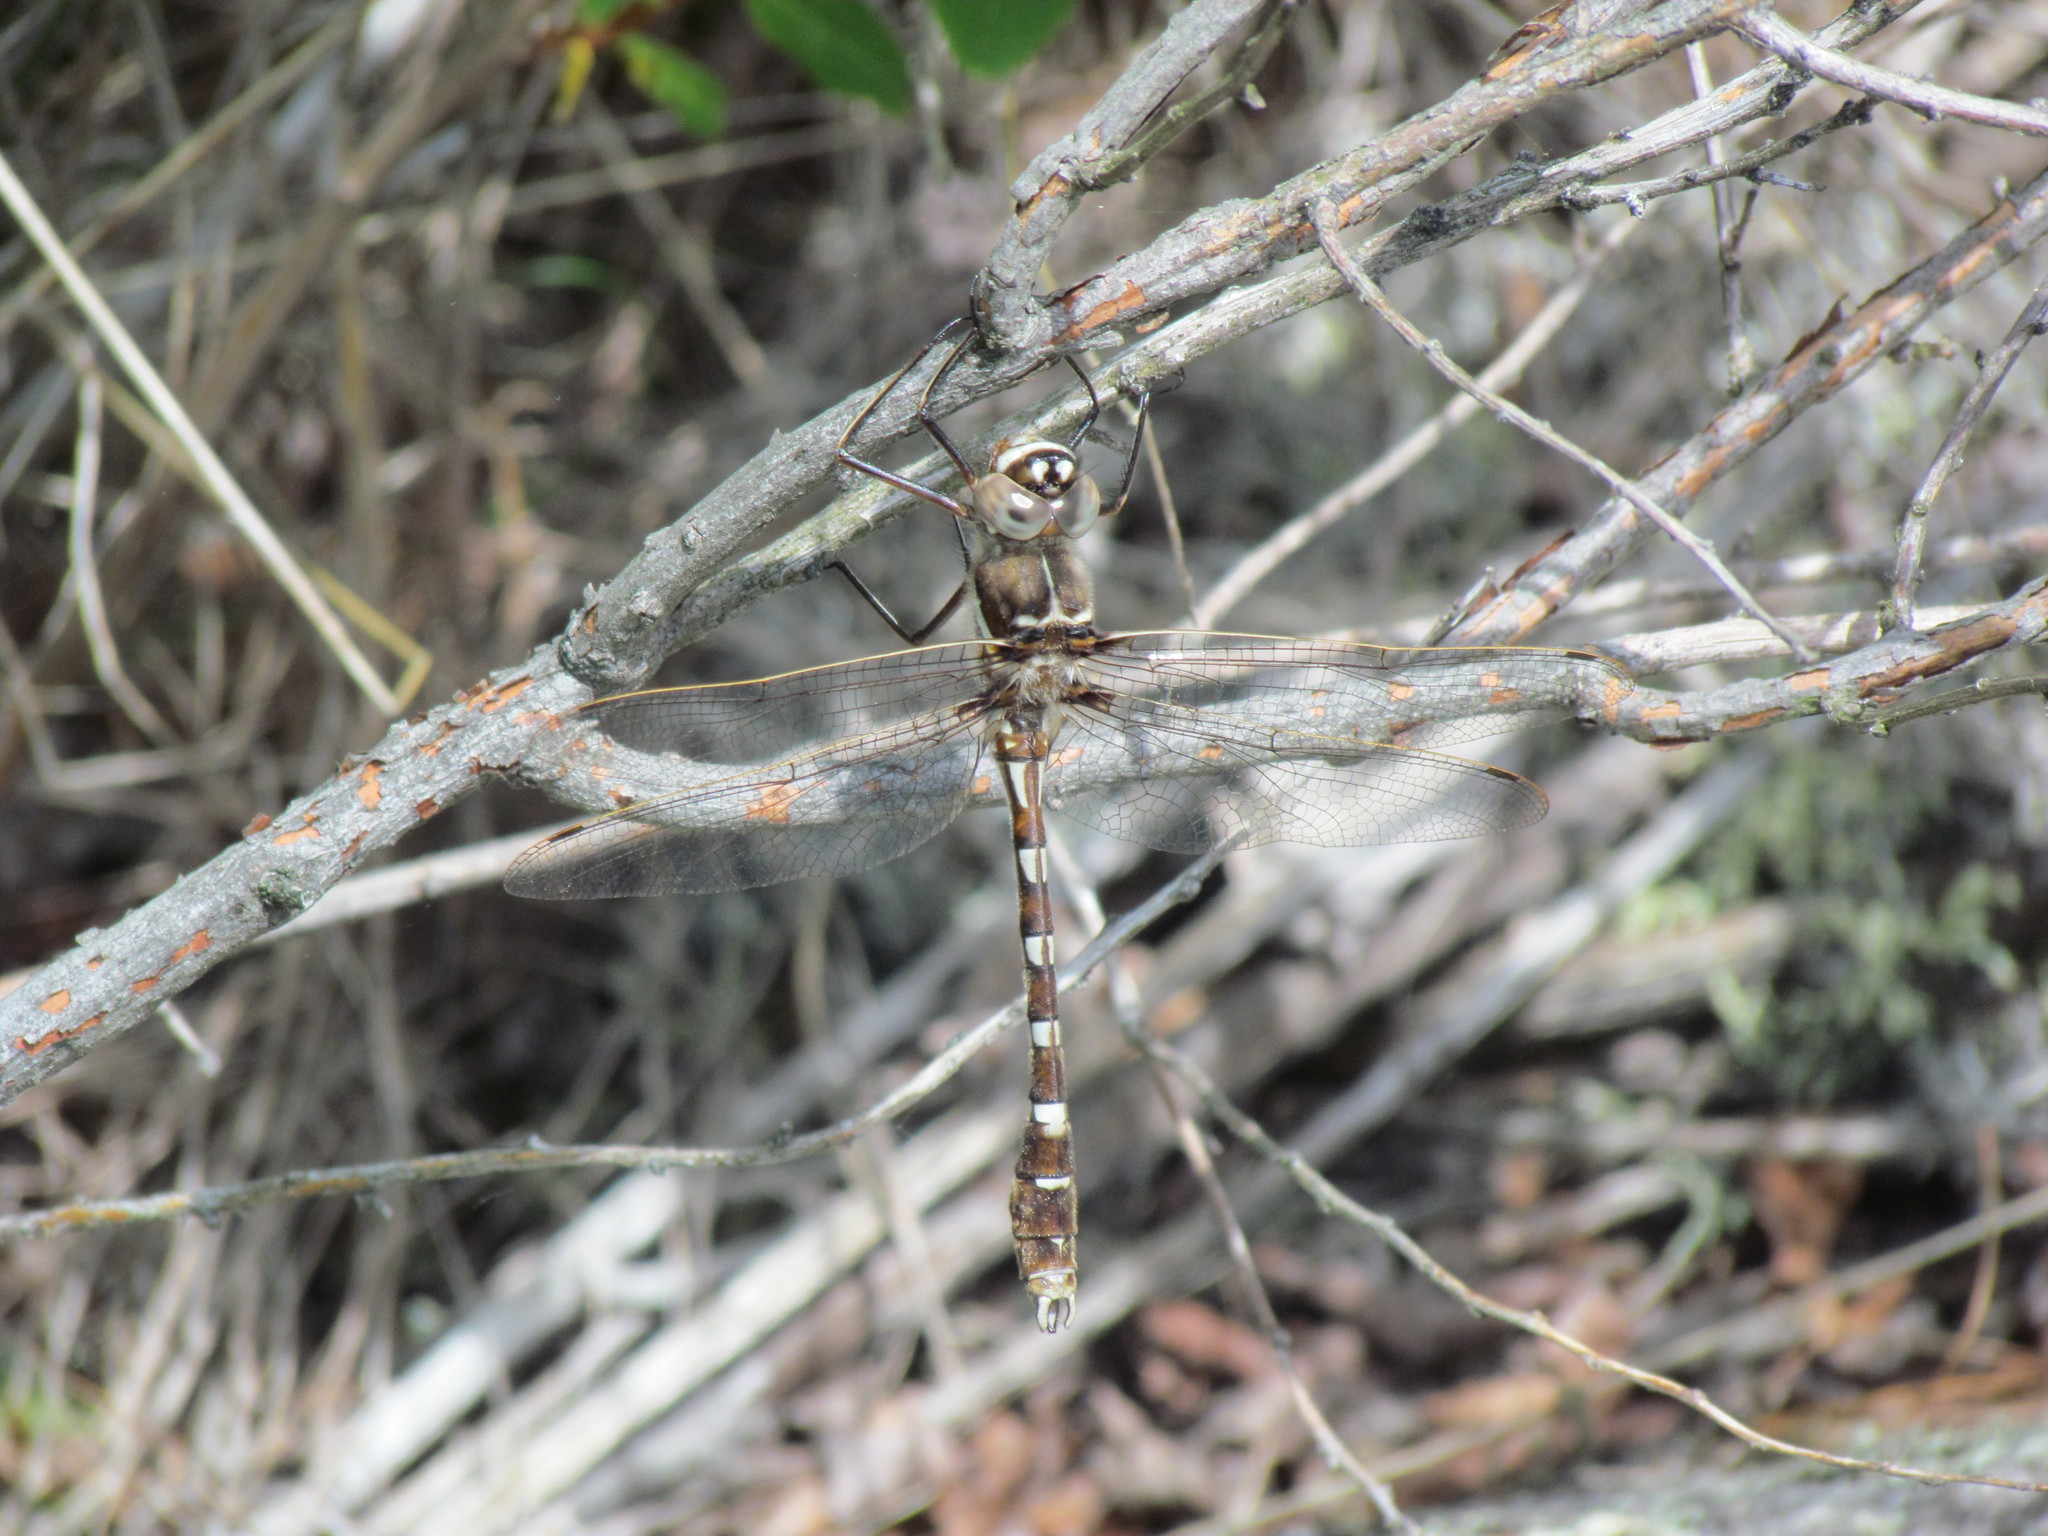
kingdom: Animalia
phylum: Arthropoda
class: Insecta
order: Odonata
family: Macromiidae
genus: Didymops
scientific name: Didymops transversa
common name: Stream cruiser
